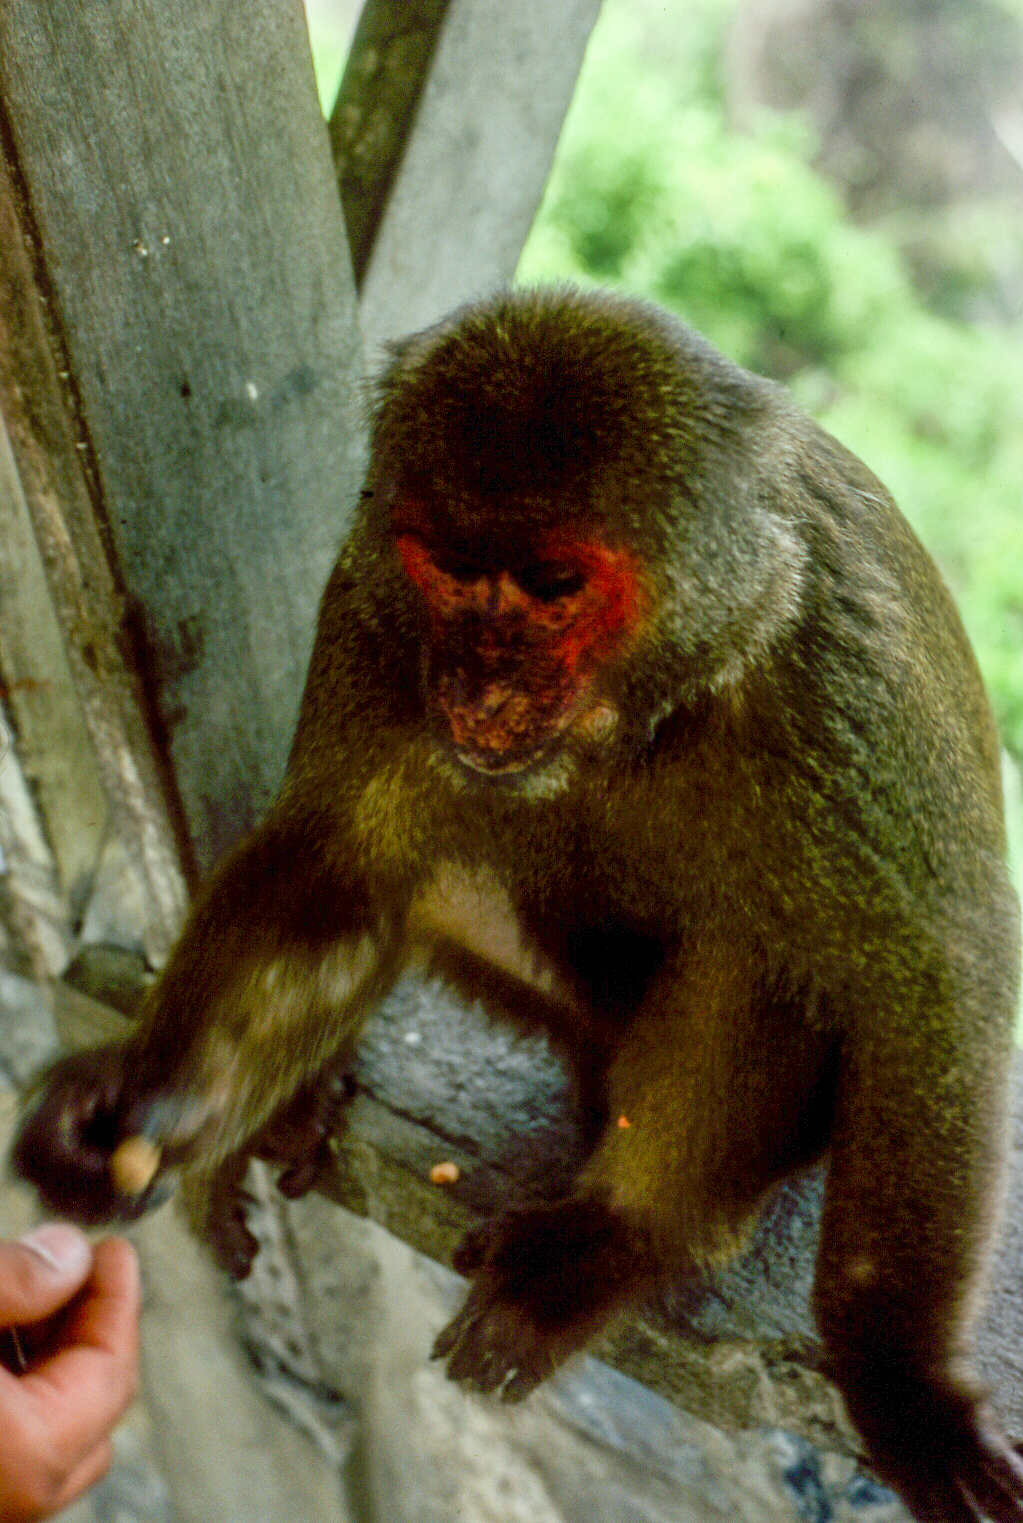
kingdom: Animalia
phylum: Chordata
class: Mammalia
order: Primates
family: Cercopithecidae
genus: Macaca
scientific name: Macaca arctoides
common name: Stump-tailed macaque
